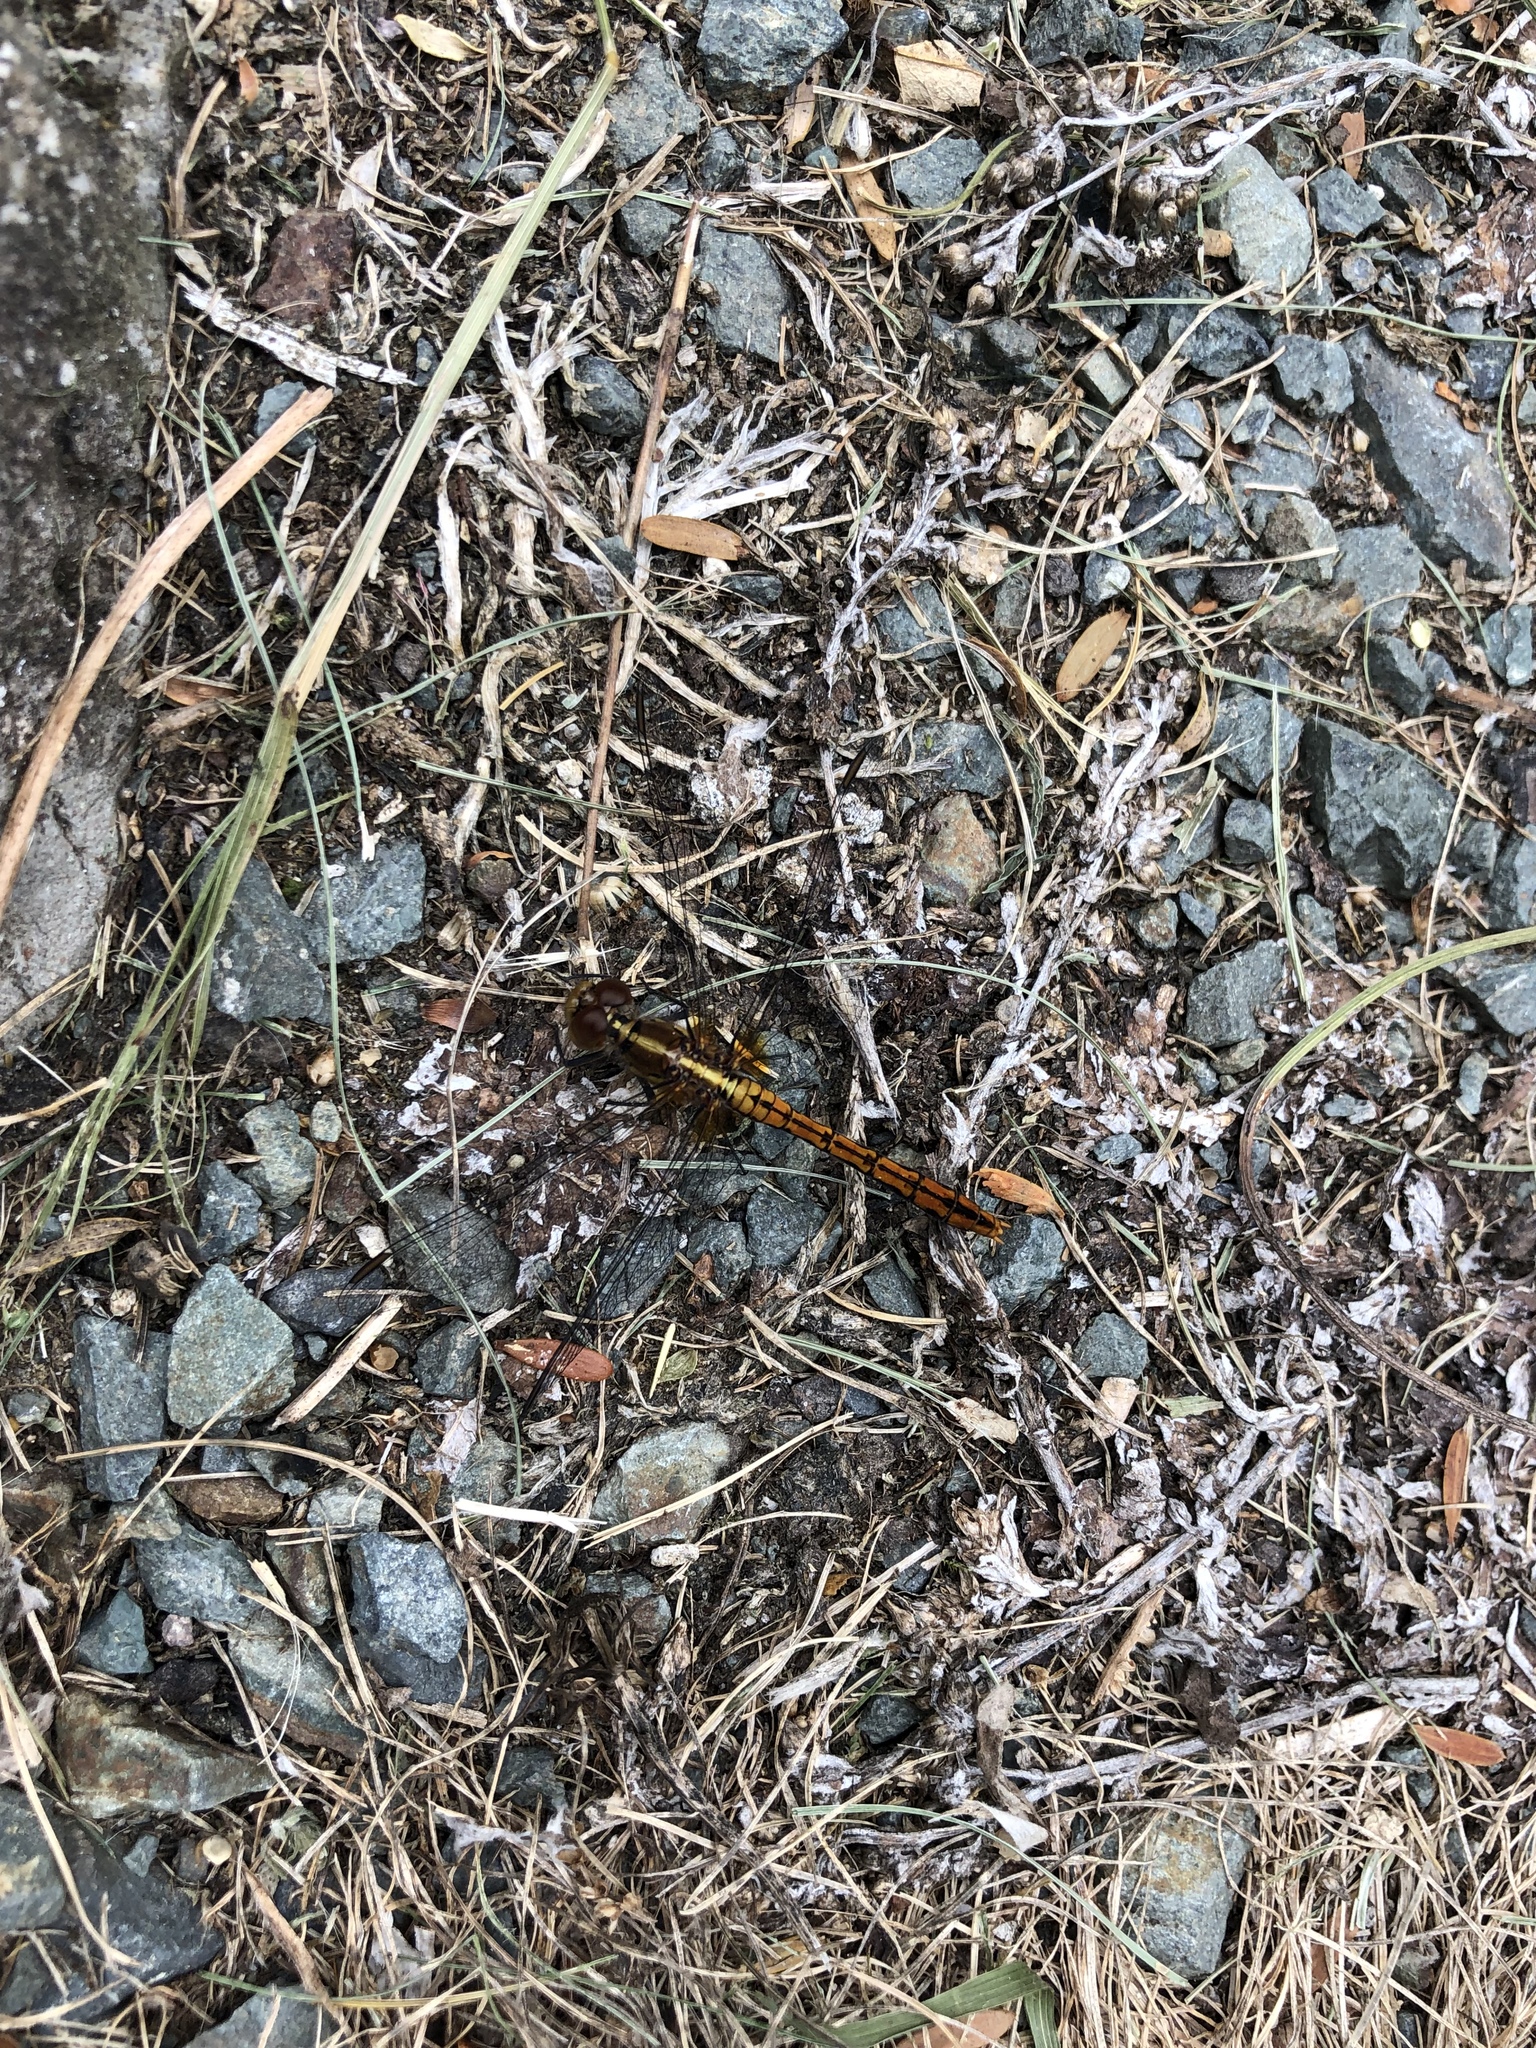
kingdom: Animalia
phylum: Arthropoda
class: Insecta
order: Odonata
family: Libellulidae
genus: Diplacodes
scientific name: Diplacodes bipunctata
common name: Red percher dragonfly
